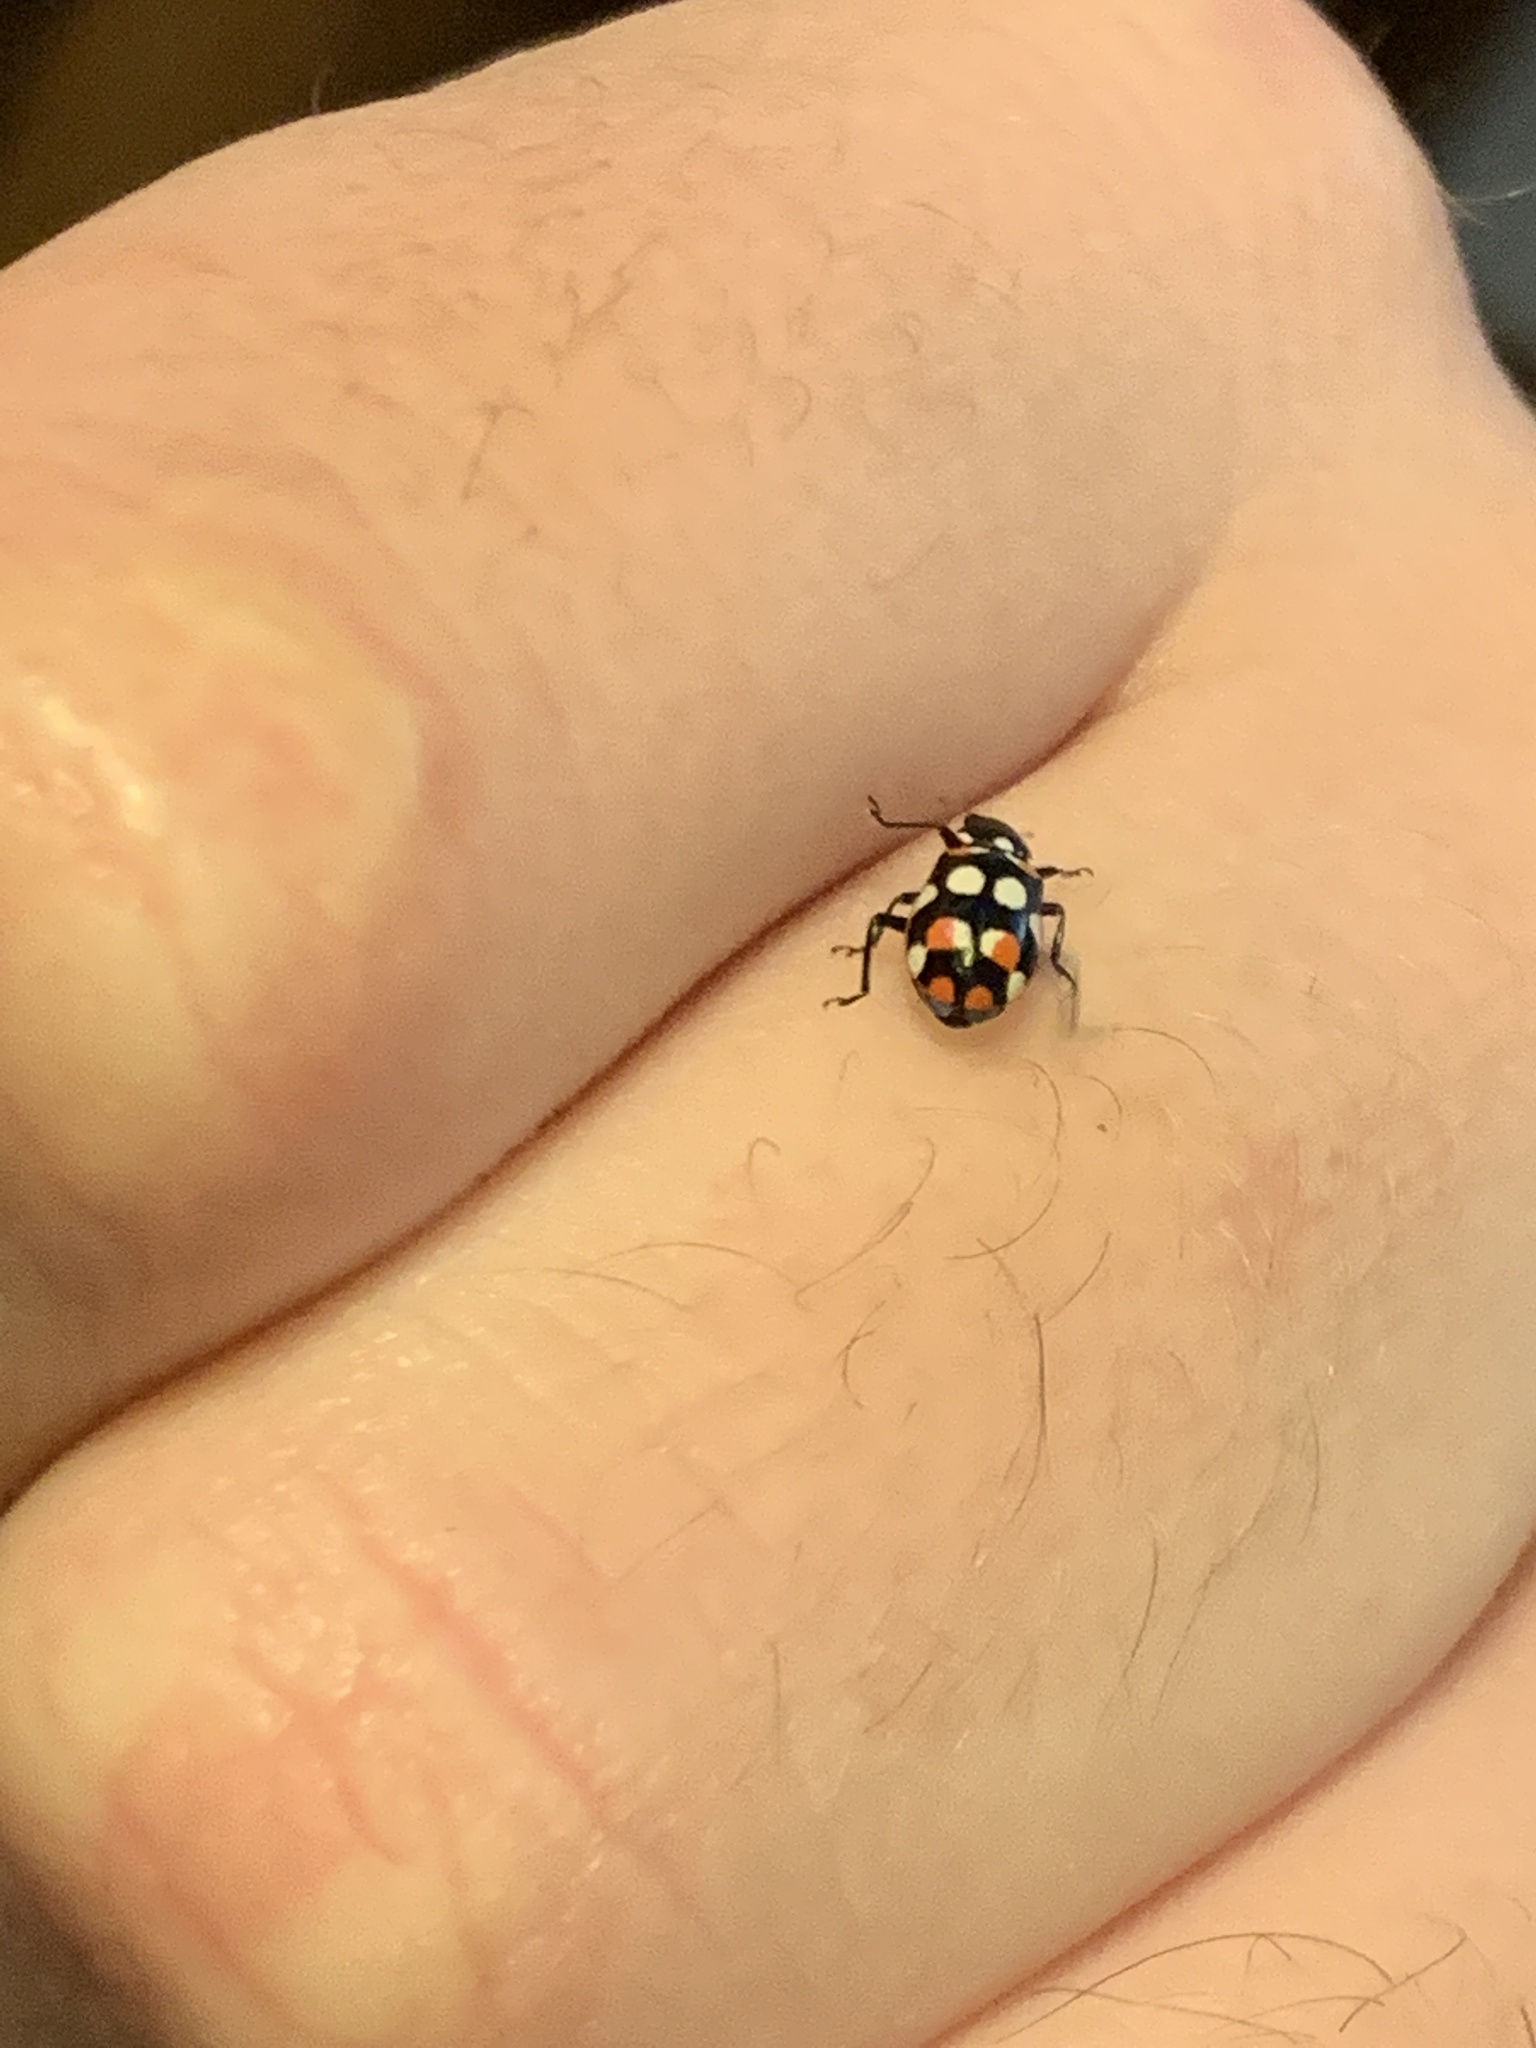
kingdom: Animalia
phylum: Arthropoda
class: Insecta
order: Coleoptera
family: Coccinellidae
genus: Eriopis
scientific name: Eriopis connexa
